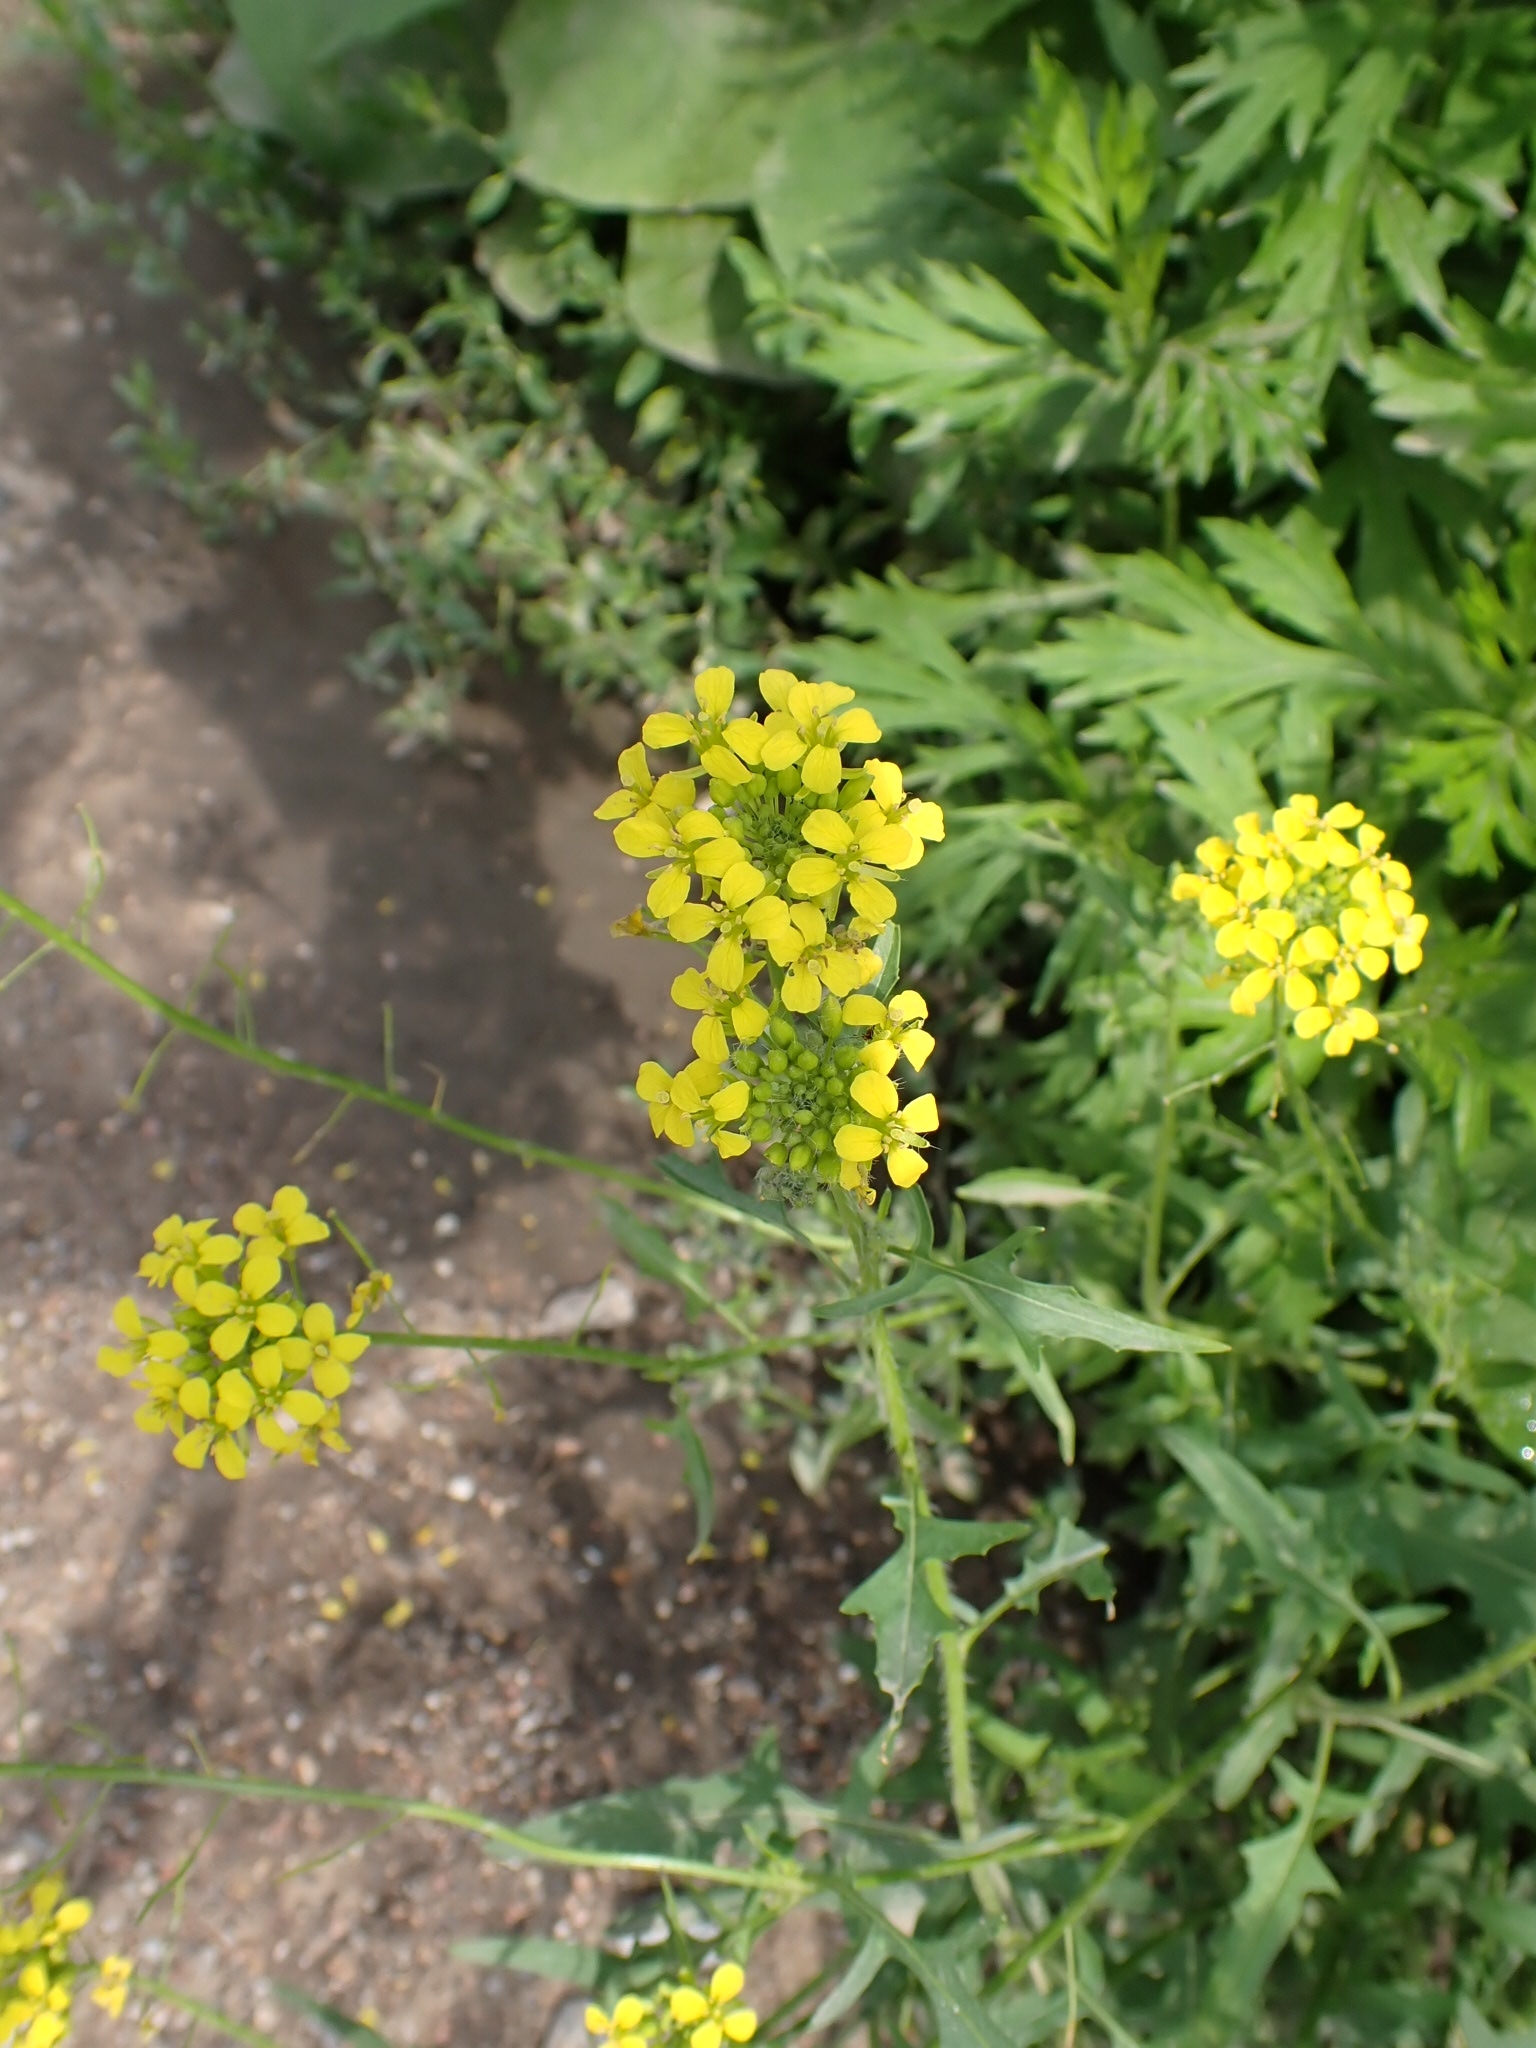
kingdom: Plantae
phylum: Tracheophyta
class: Magnoliopsida
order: Brassicales
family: Brassicaceae
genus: Sisymbrium
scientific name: Sisymbrium loeselii
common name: False london-rocket
